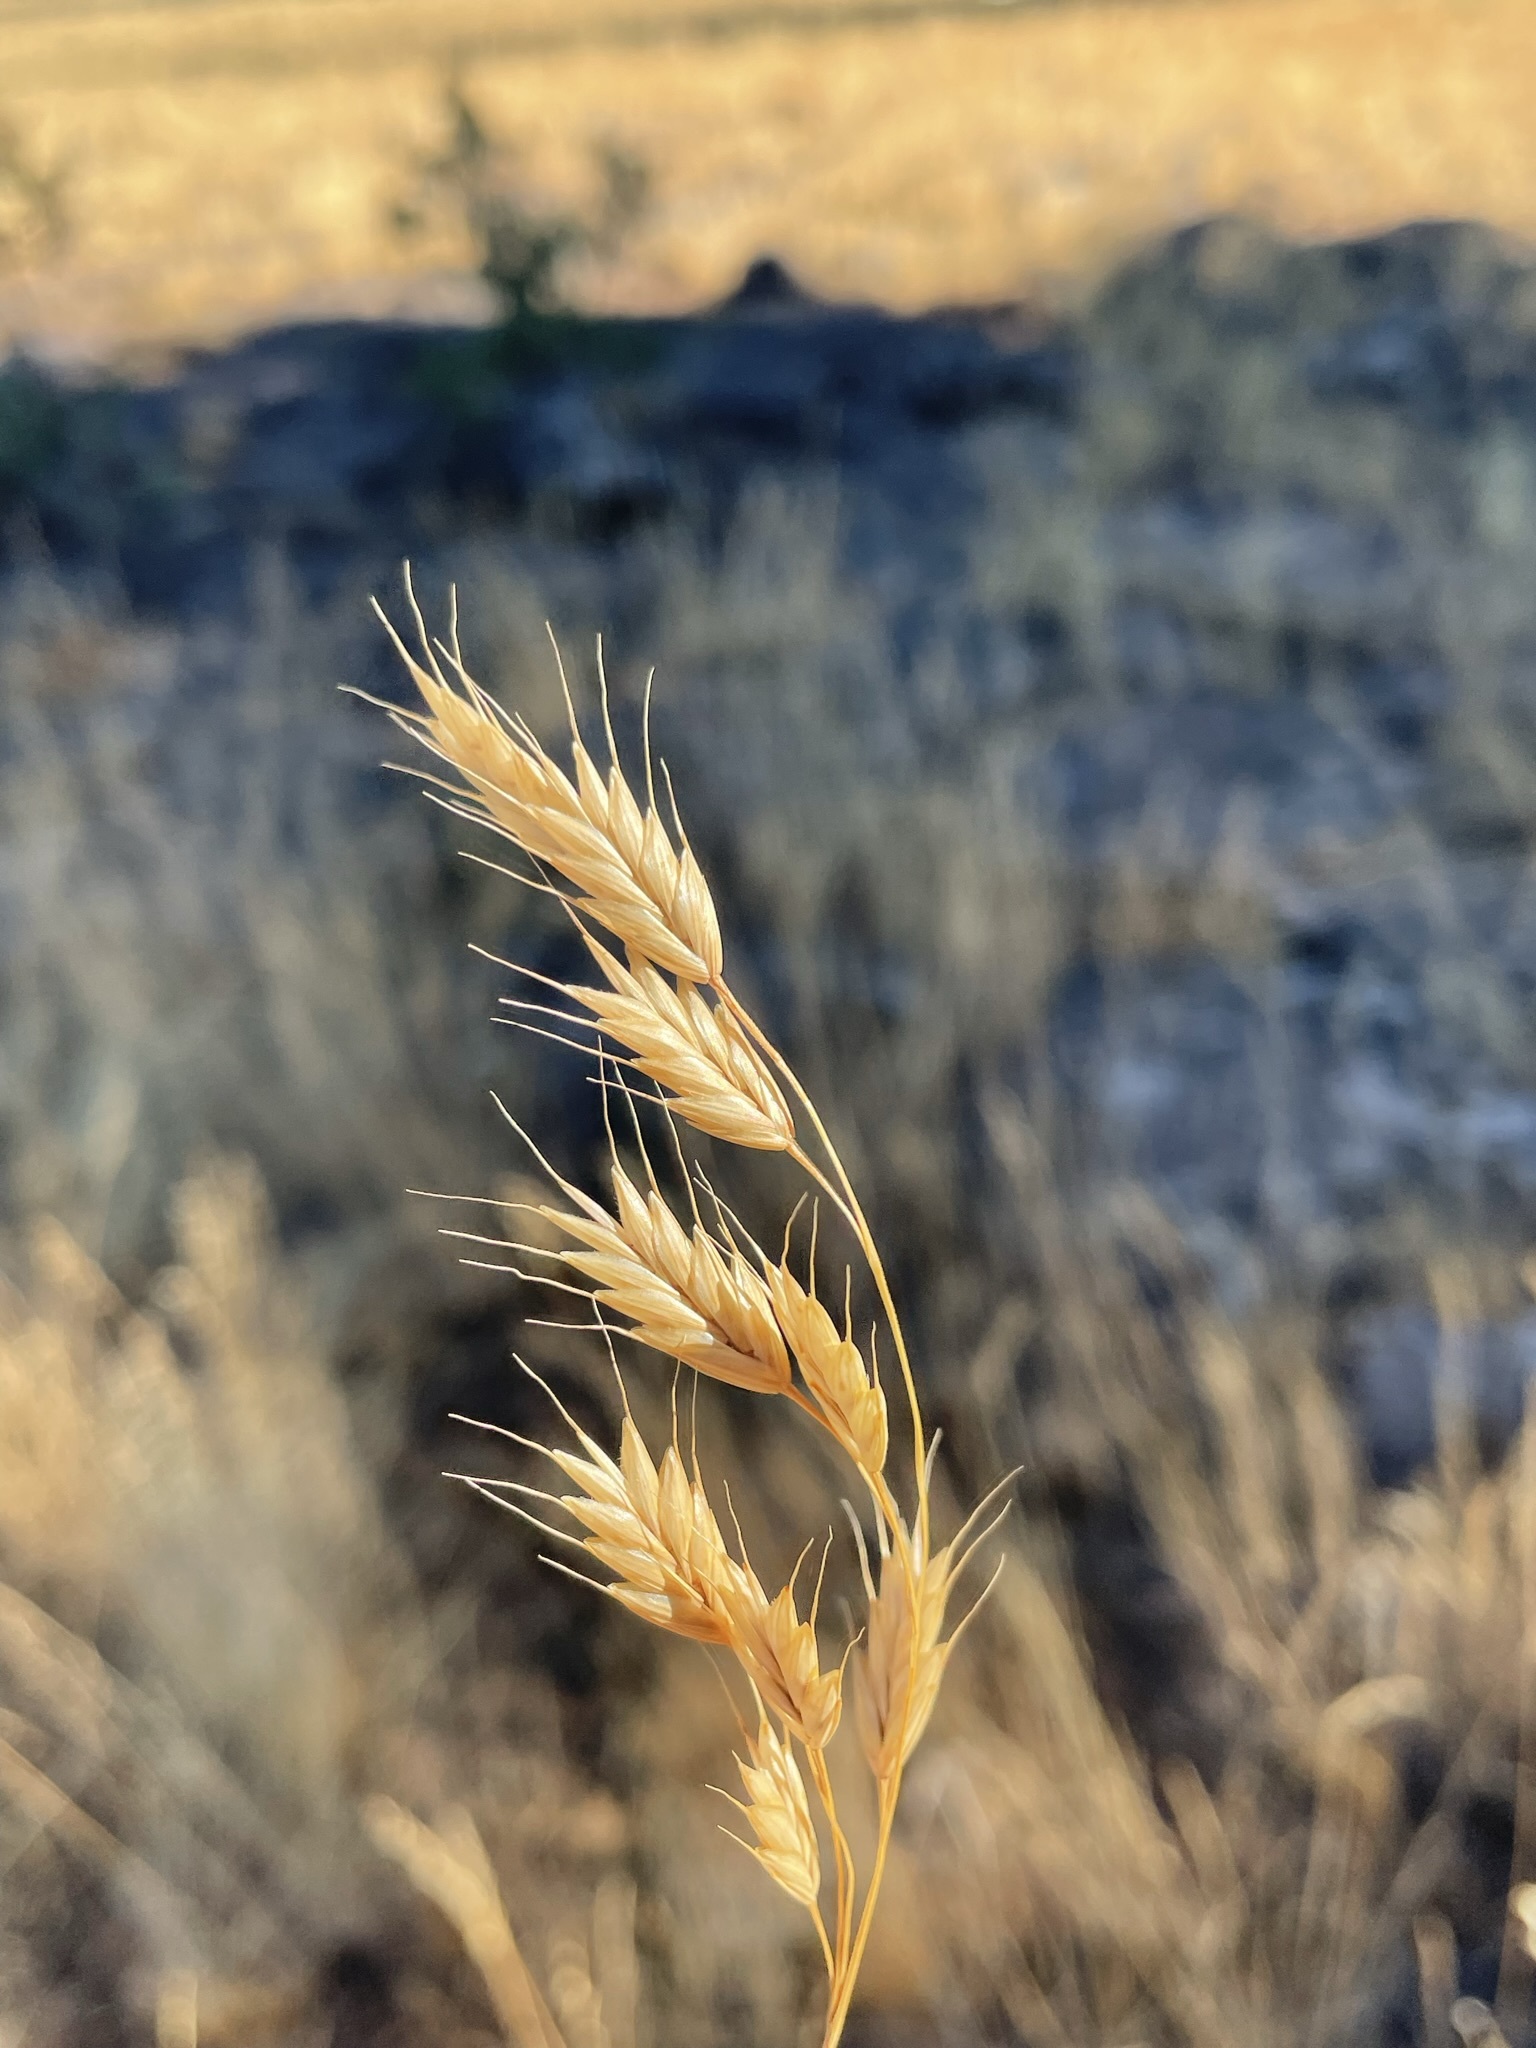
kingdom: Plantae
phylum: Tracheophyta
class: Liliopsida
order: Poales
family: Poaceae
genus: Bromus
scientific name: Bromus japonicus
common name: Japanese brome
